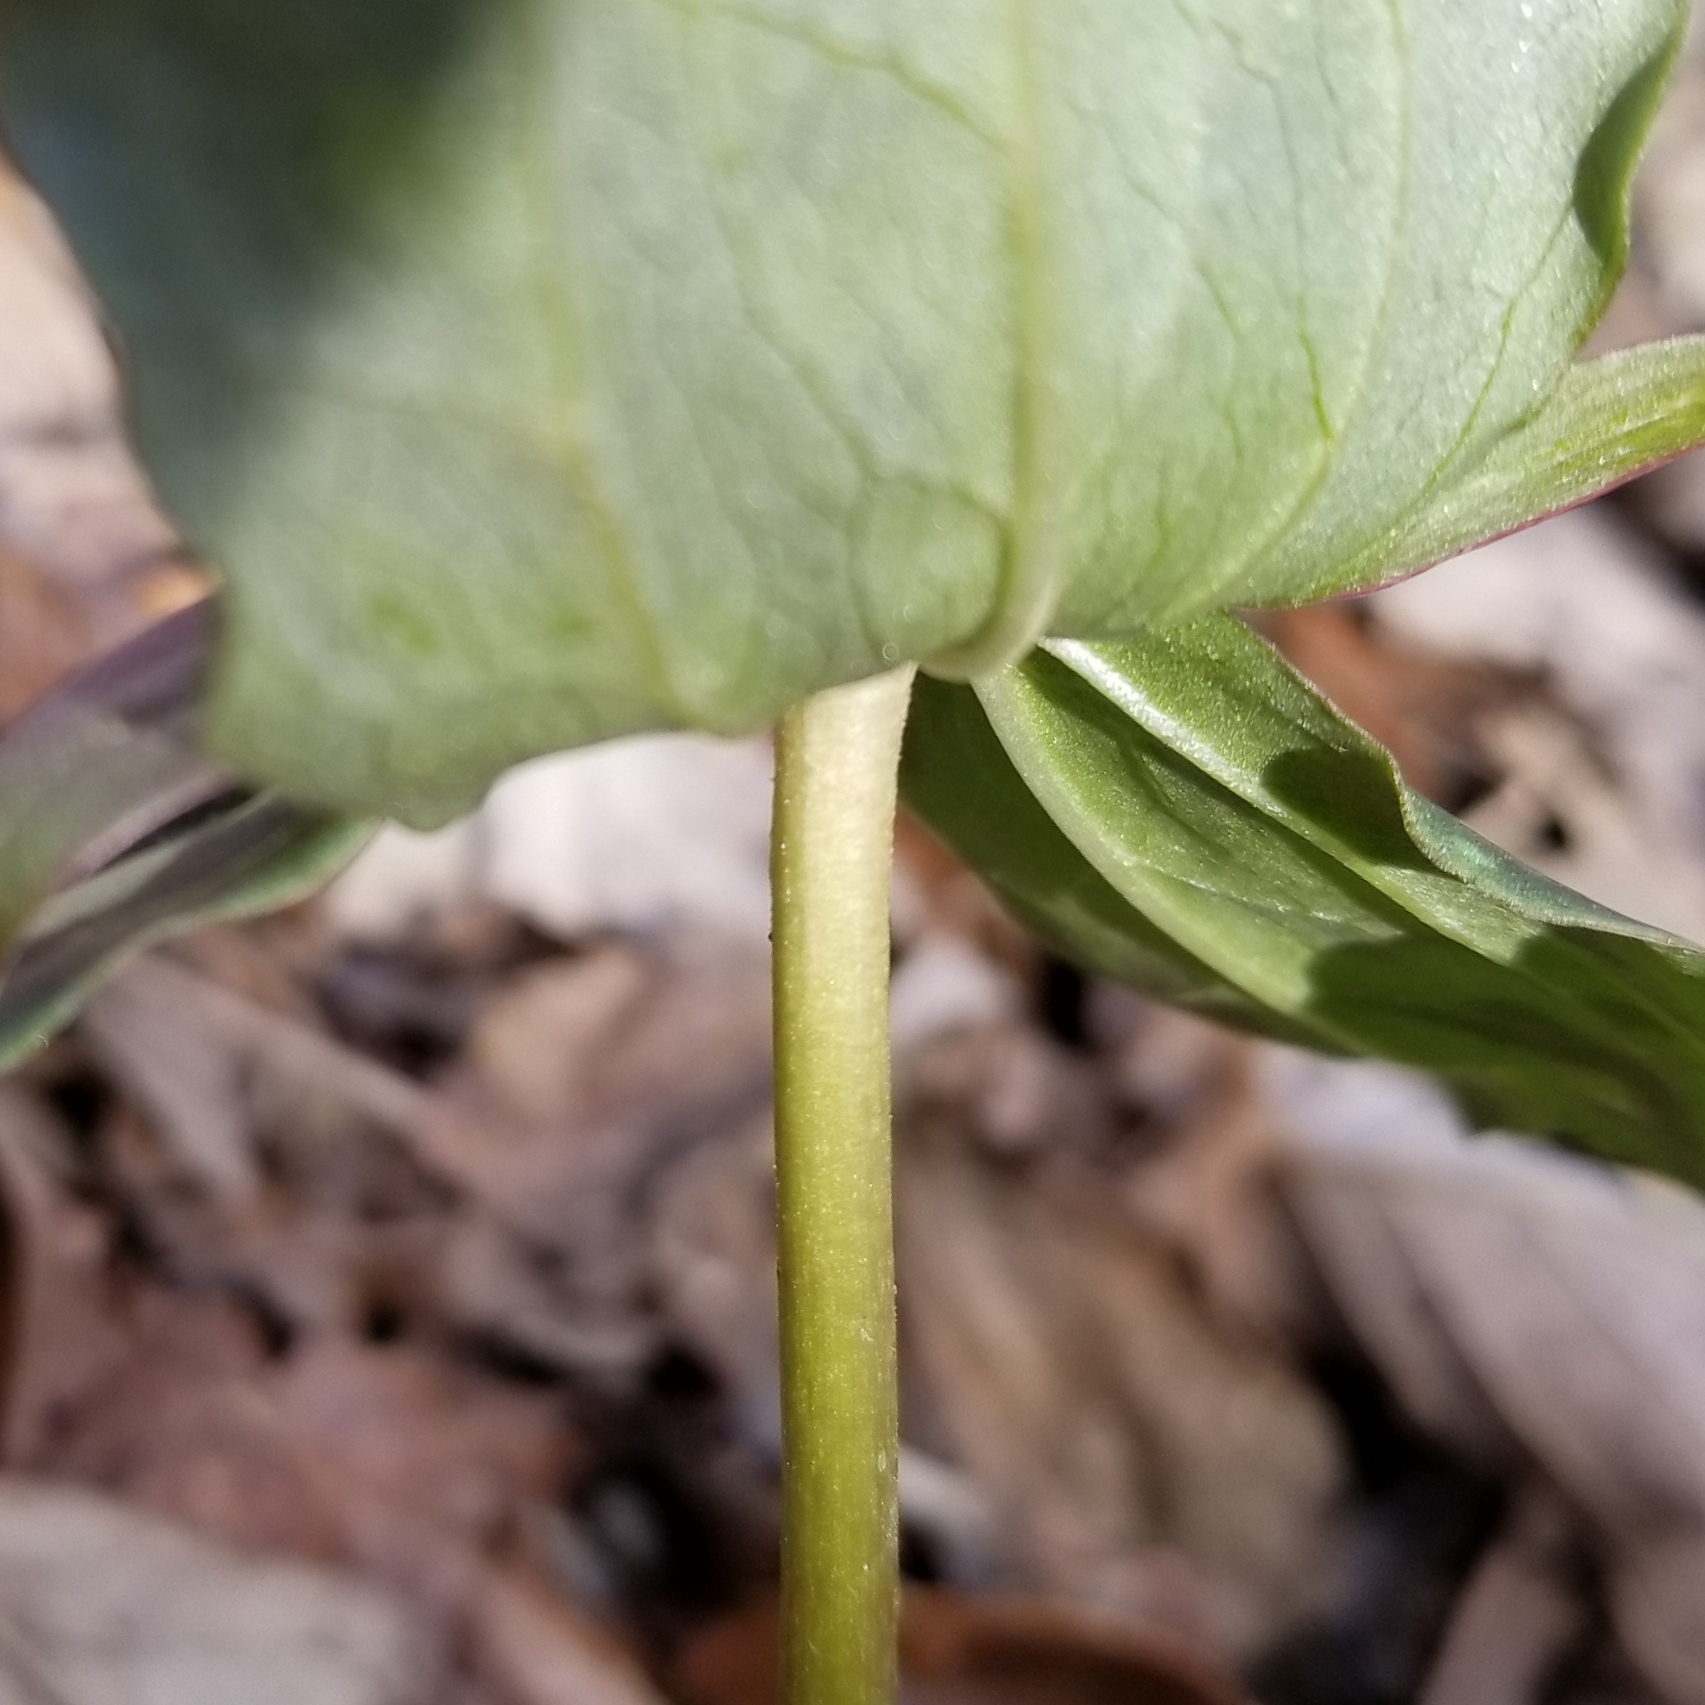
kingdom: Plantae
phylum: Tracheophyta
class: Liliopsida
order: Liliales
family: Melanthiaceae
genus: Trillium
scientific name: Trillium cuneatum
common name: Cuneate trillium
